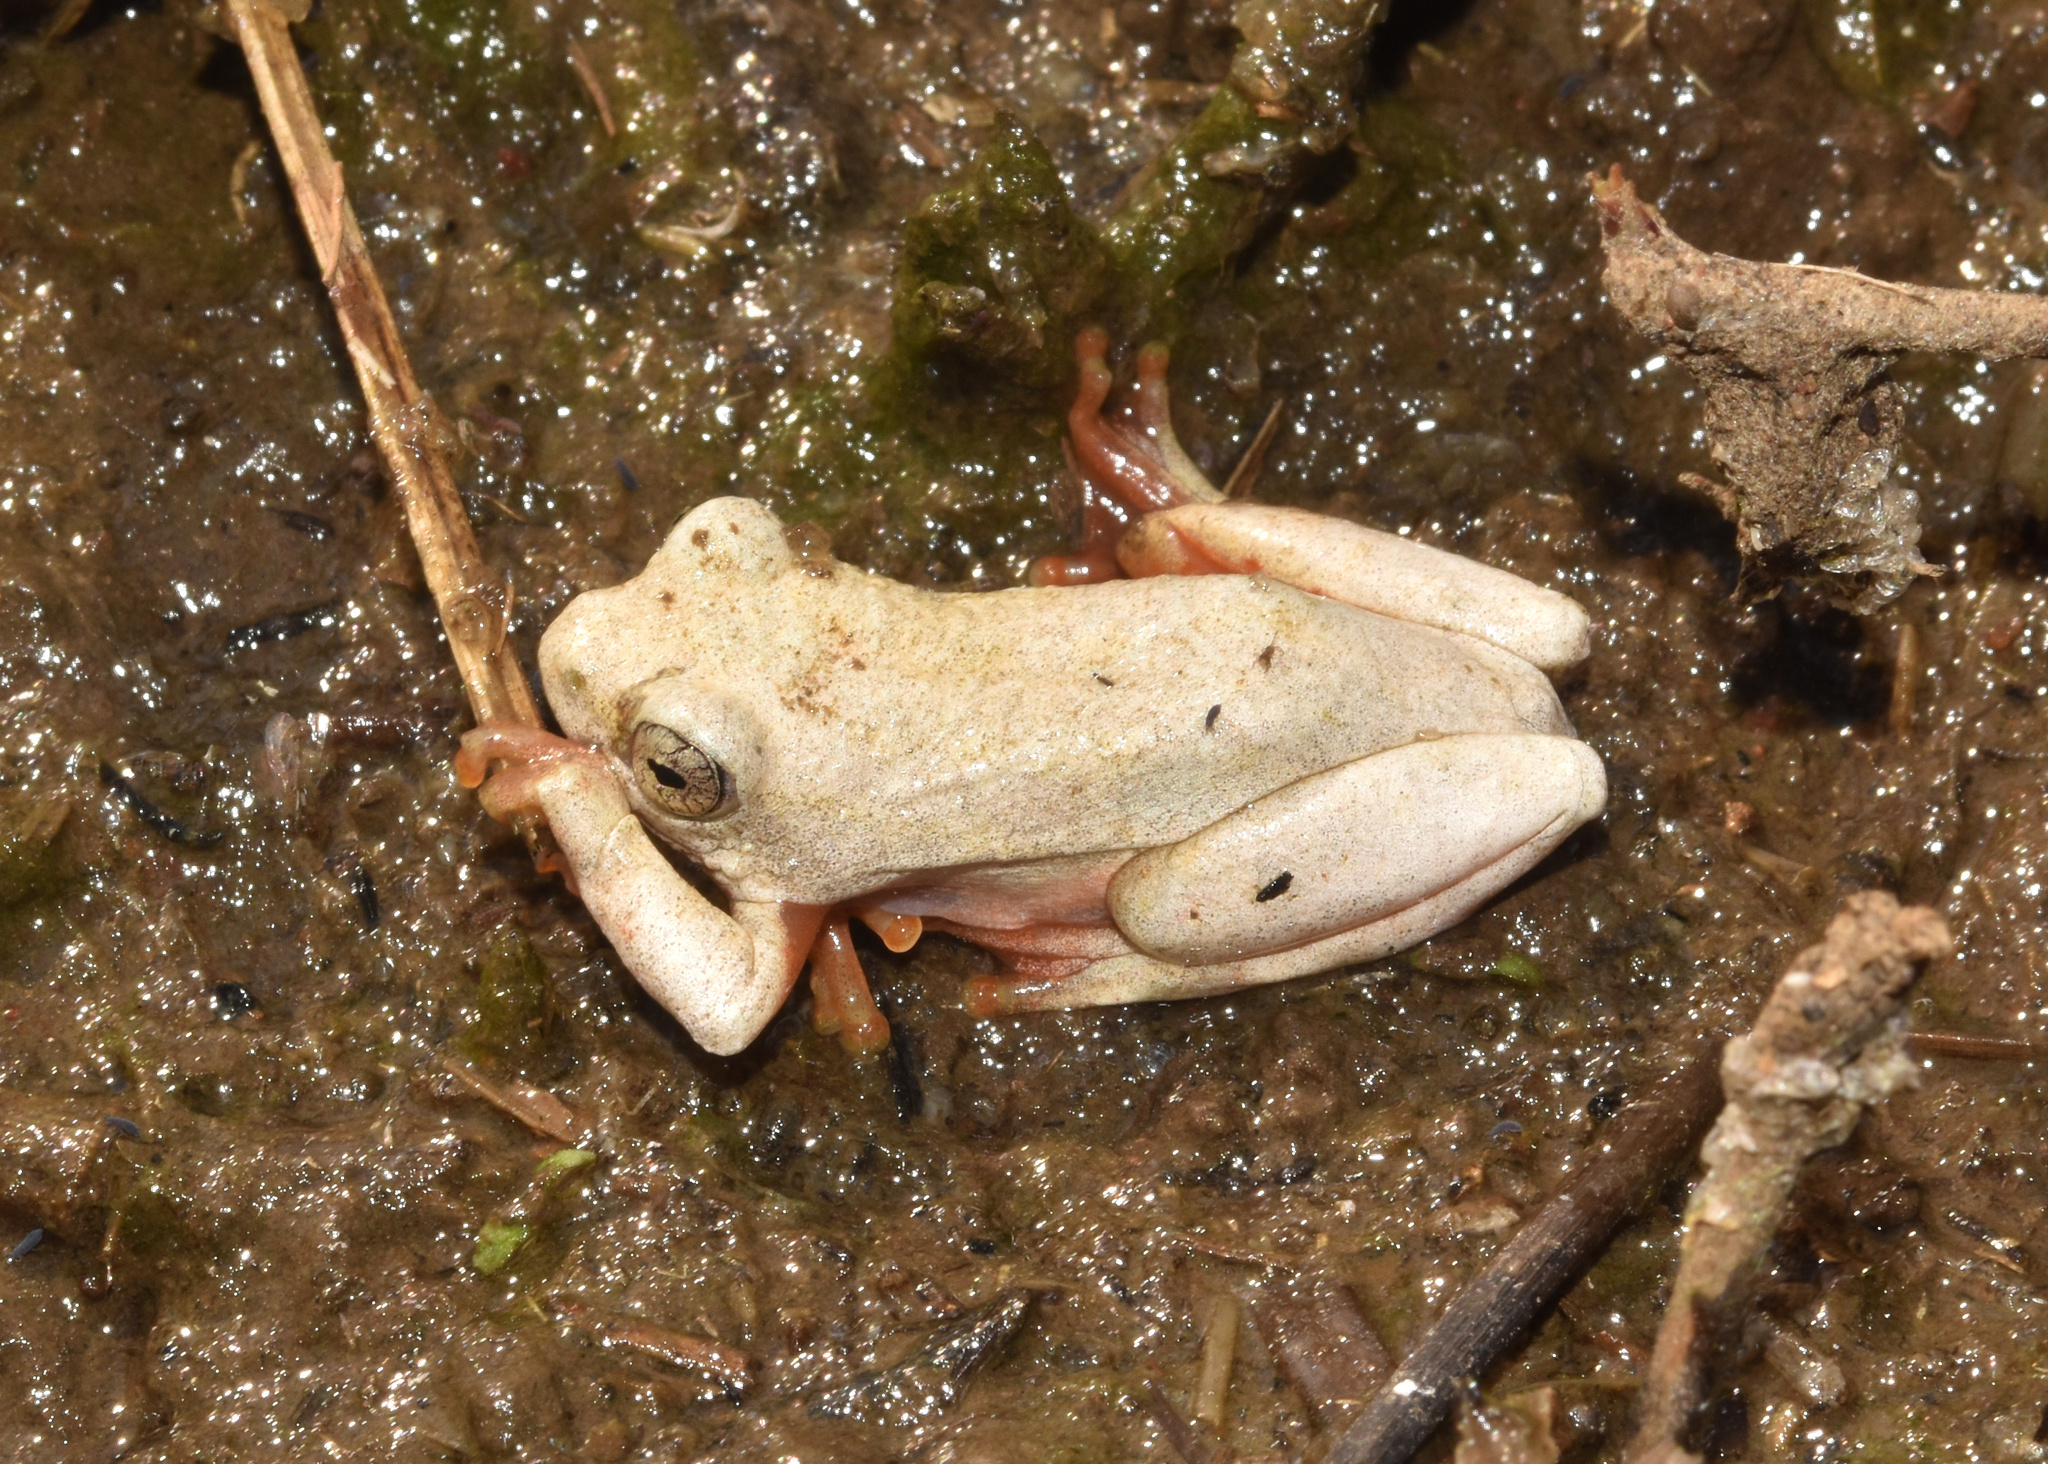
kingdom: Animalia
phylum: Chordata
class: Amphibia
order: Anura
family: Hyperoliidae
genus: Hyperolius
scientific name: Hyperolius marmoratus
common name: Painted reed frog
